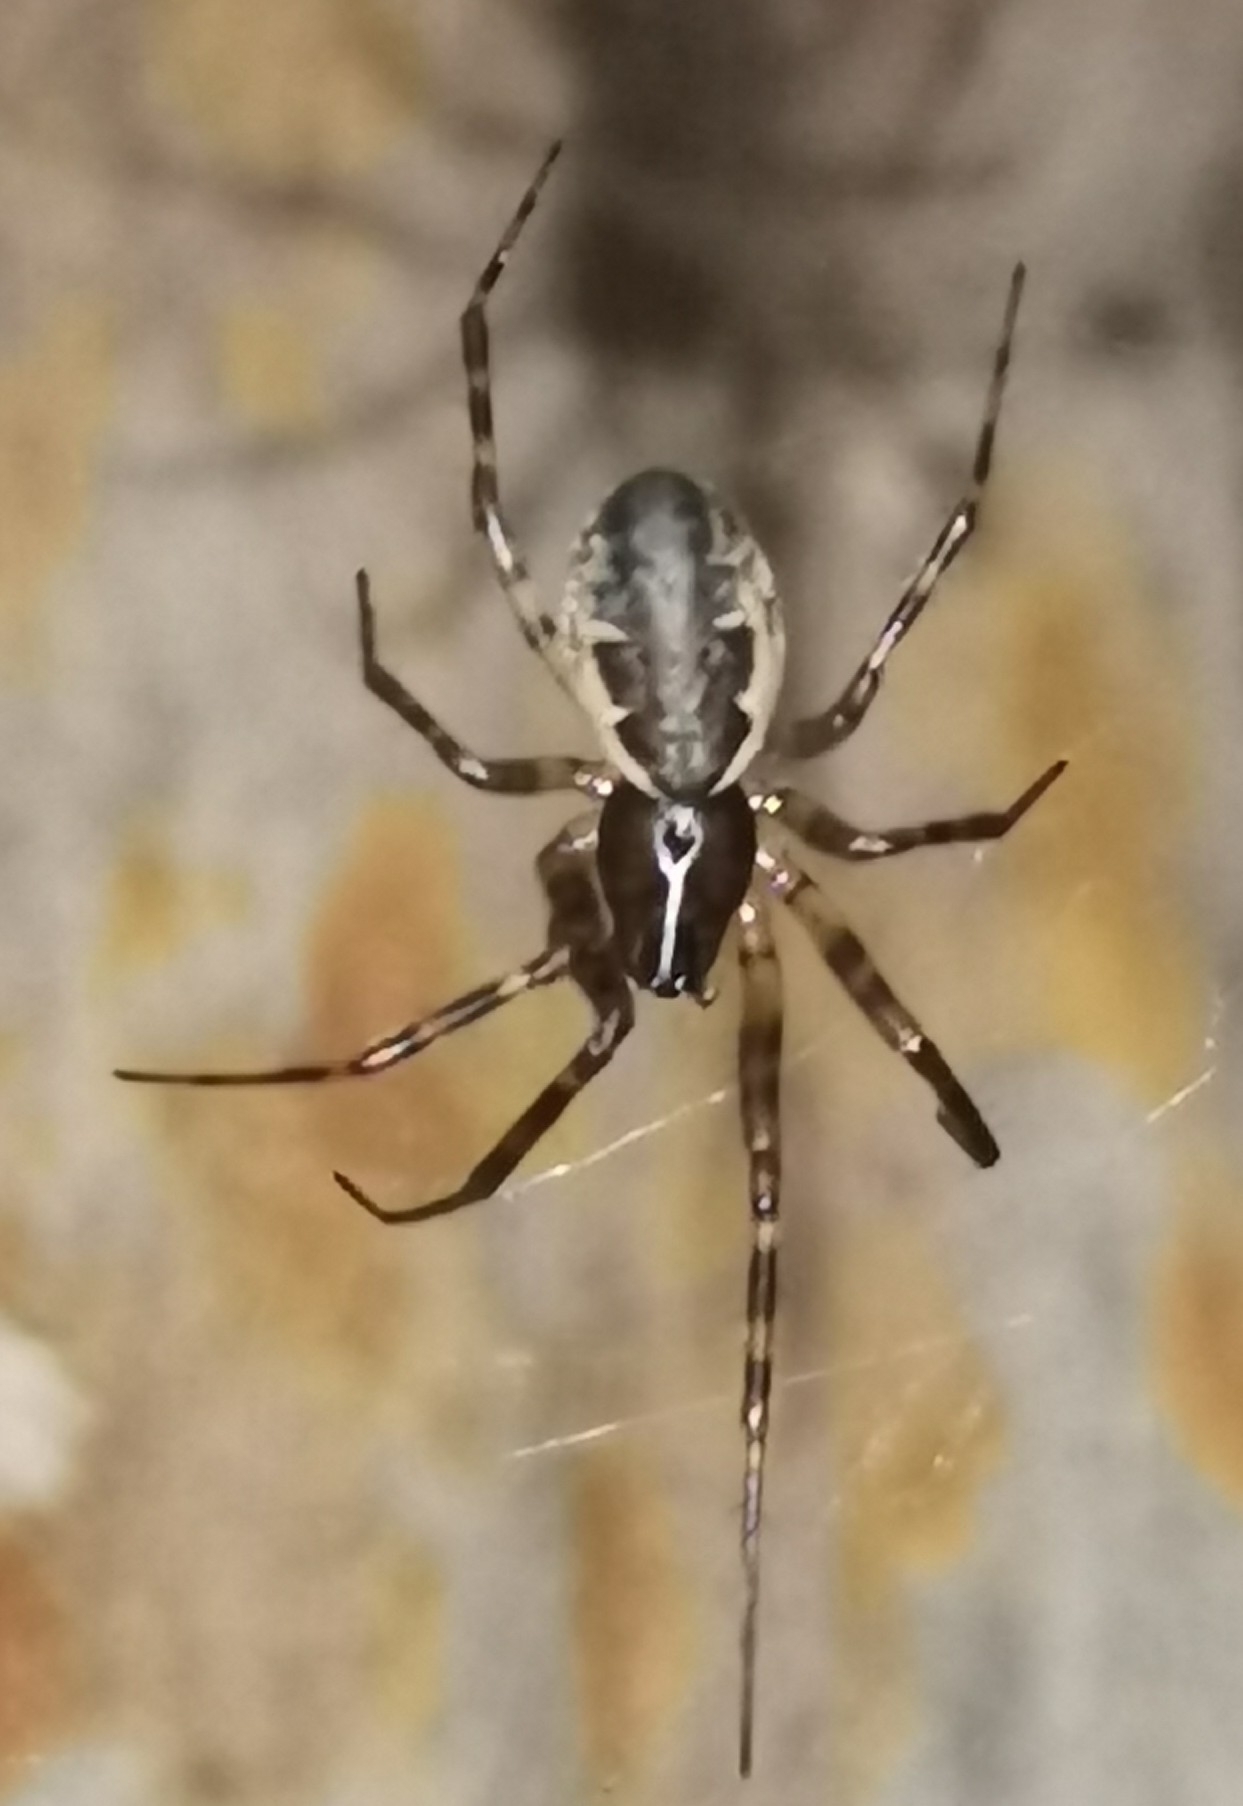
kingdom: Animalia
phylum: Arthropoda
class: Arachnida
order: Araneae
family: Linyphiidae
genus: Neriene
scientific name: Neriene montana
